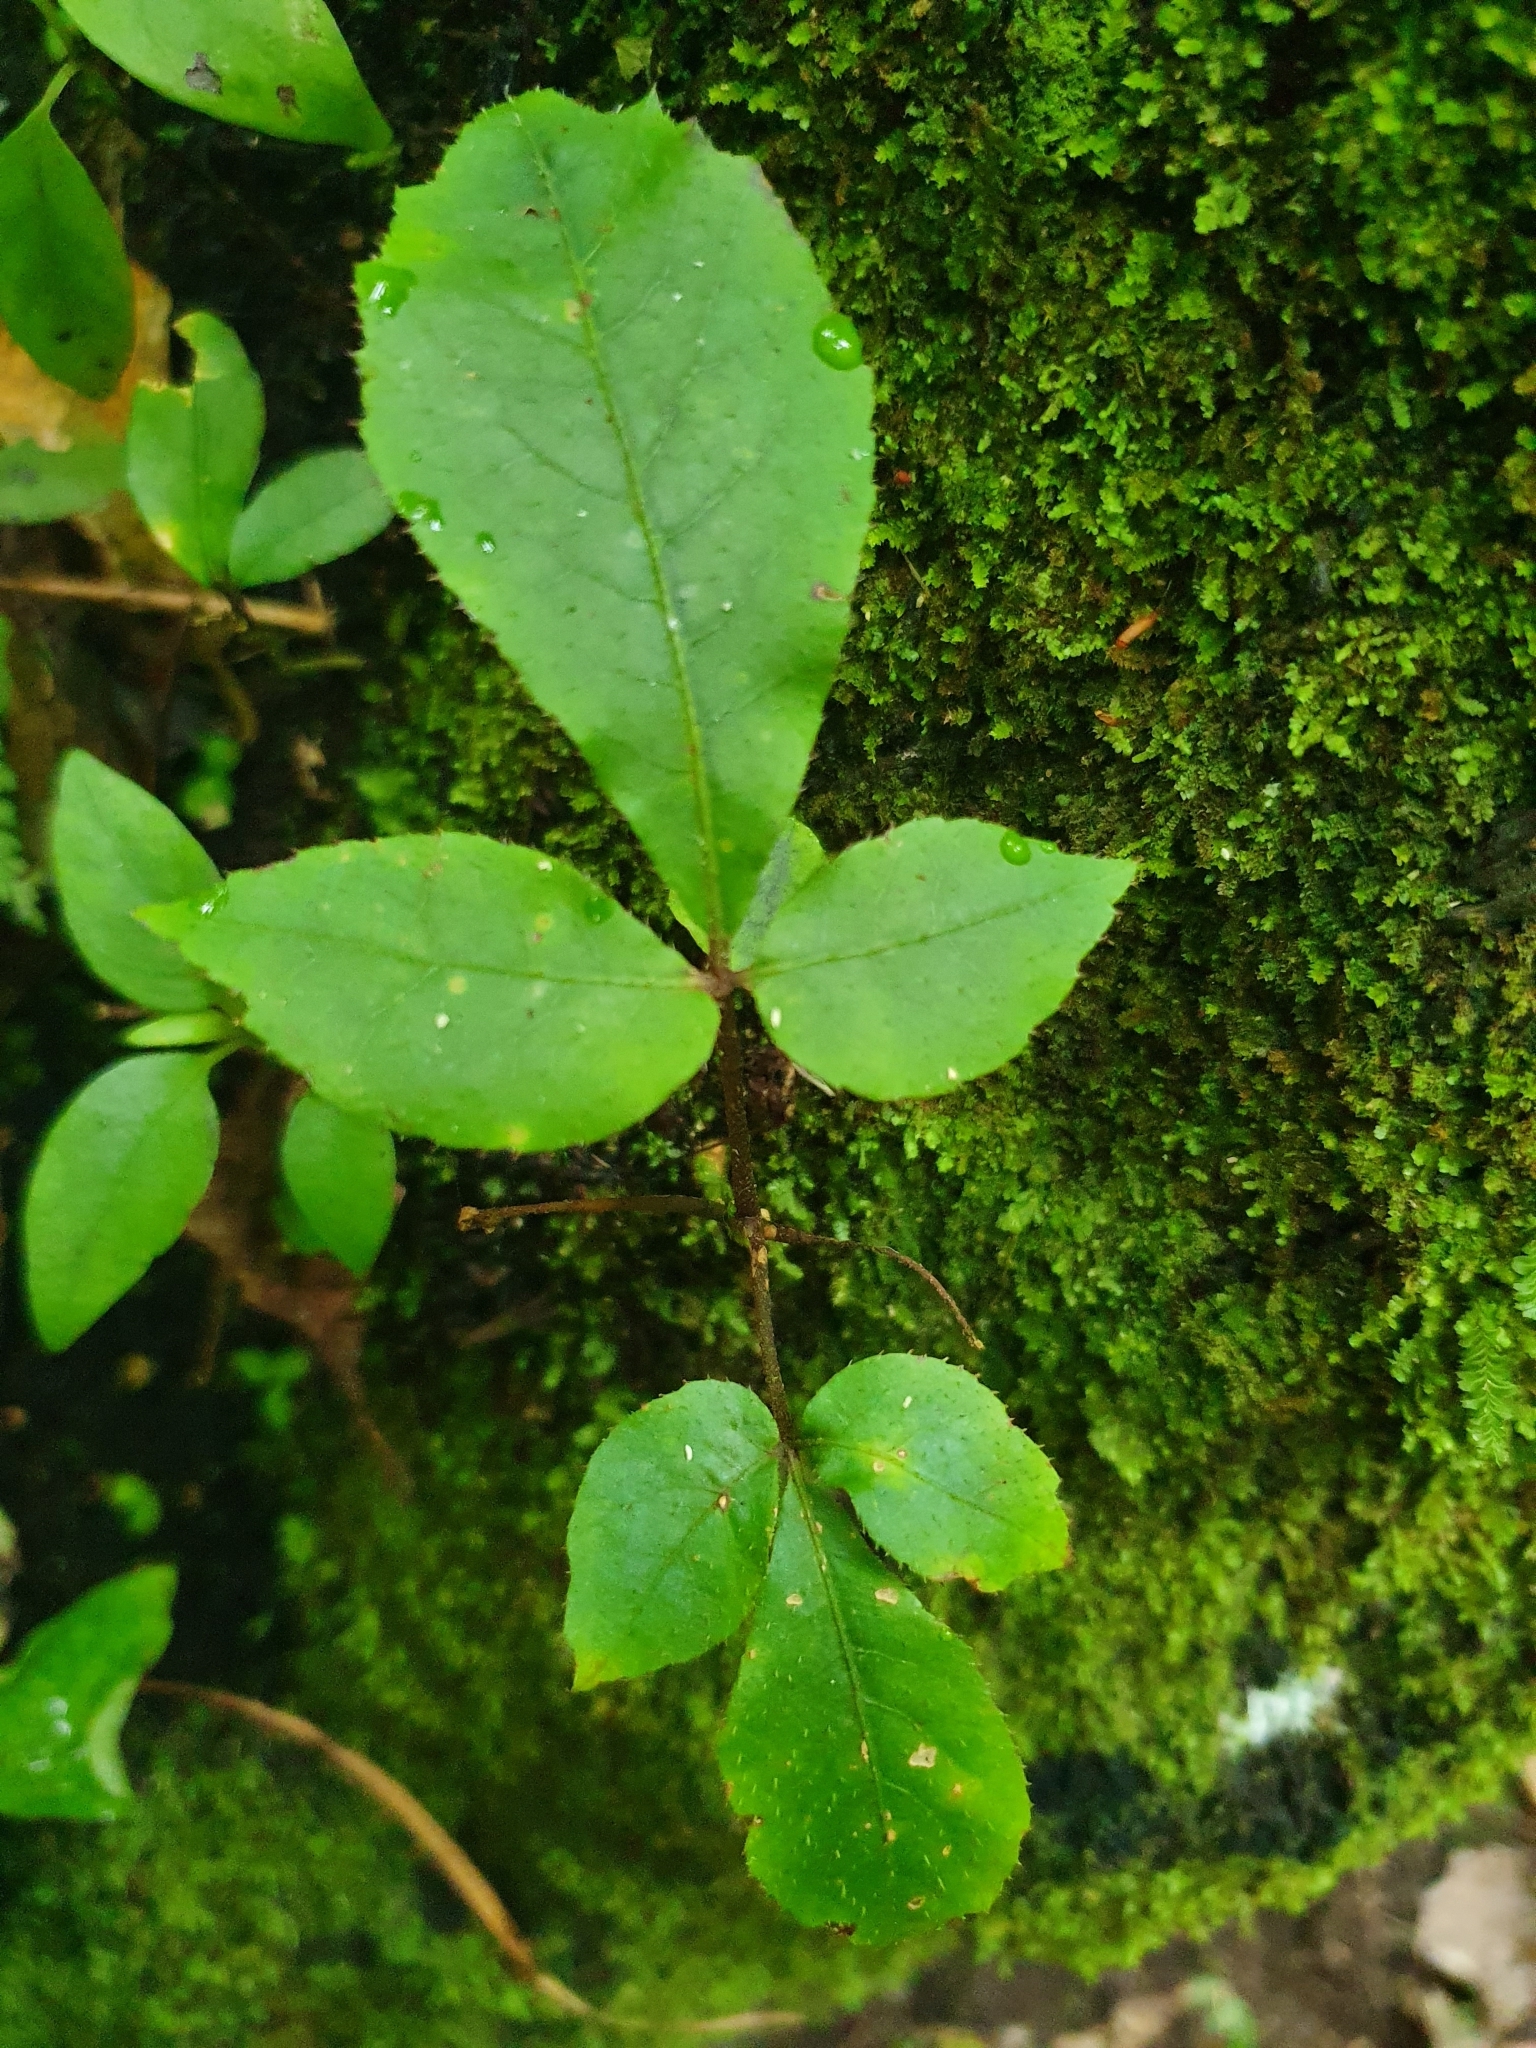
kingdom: Plantae
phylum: Tracheophyta
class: Magnoliopsida
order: Apiales
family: Araliaceae
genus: Schefflera
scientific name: Schefflera digitata
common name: Pate
